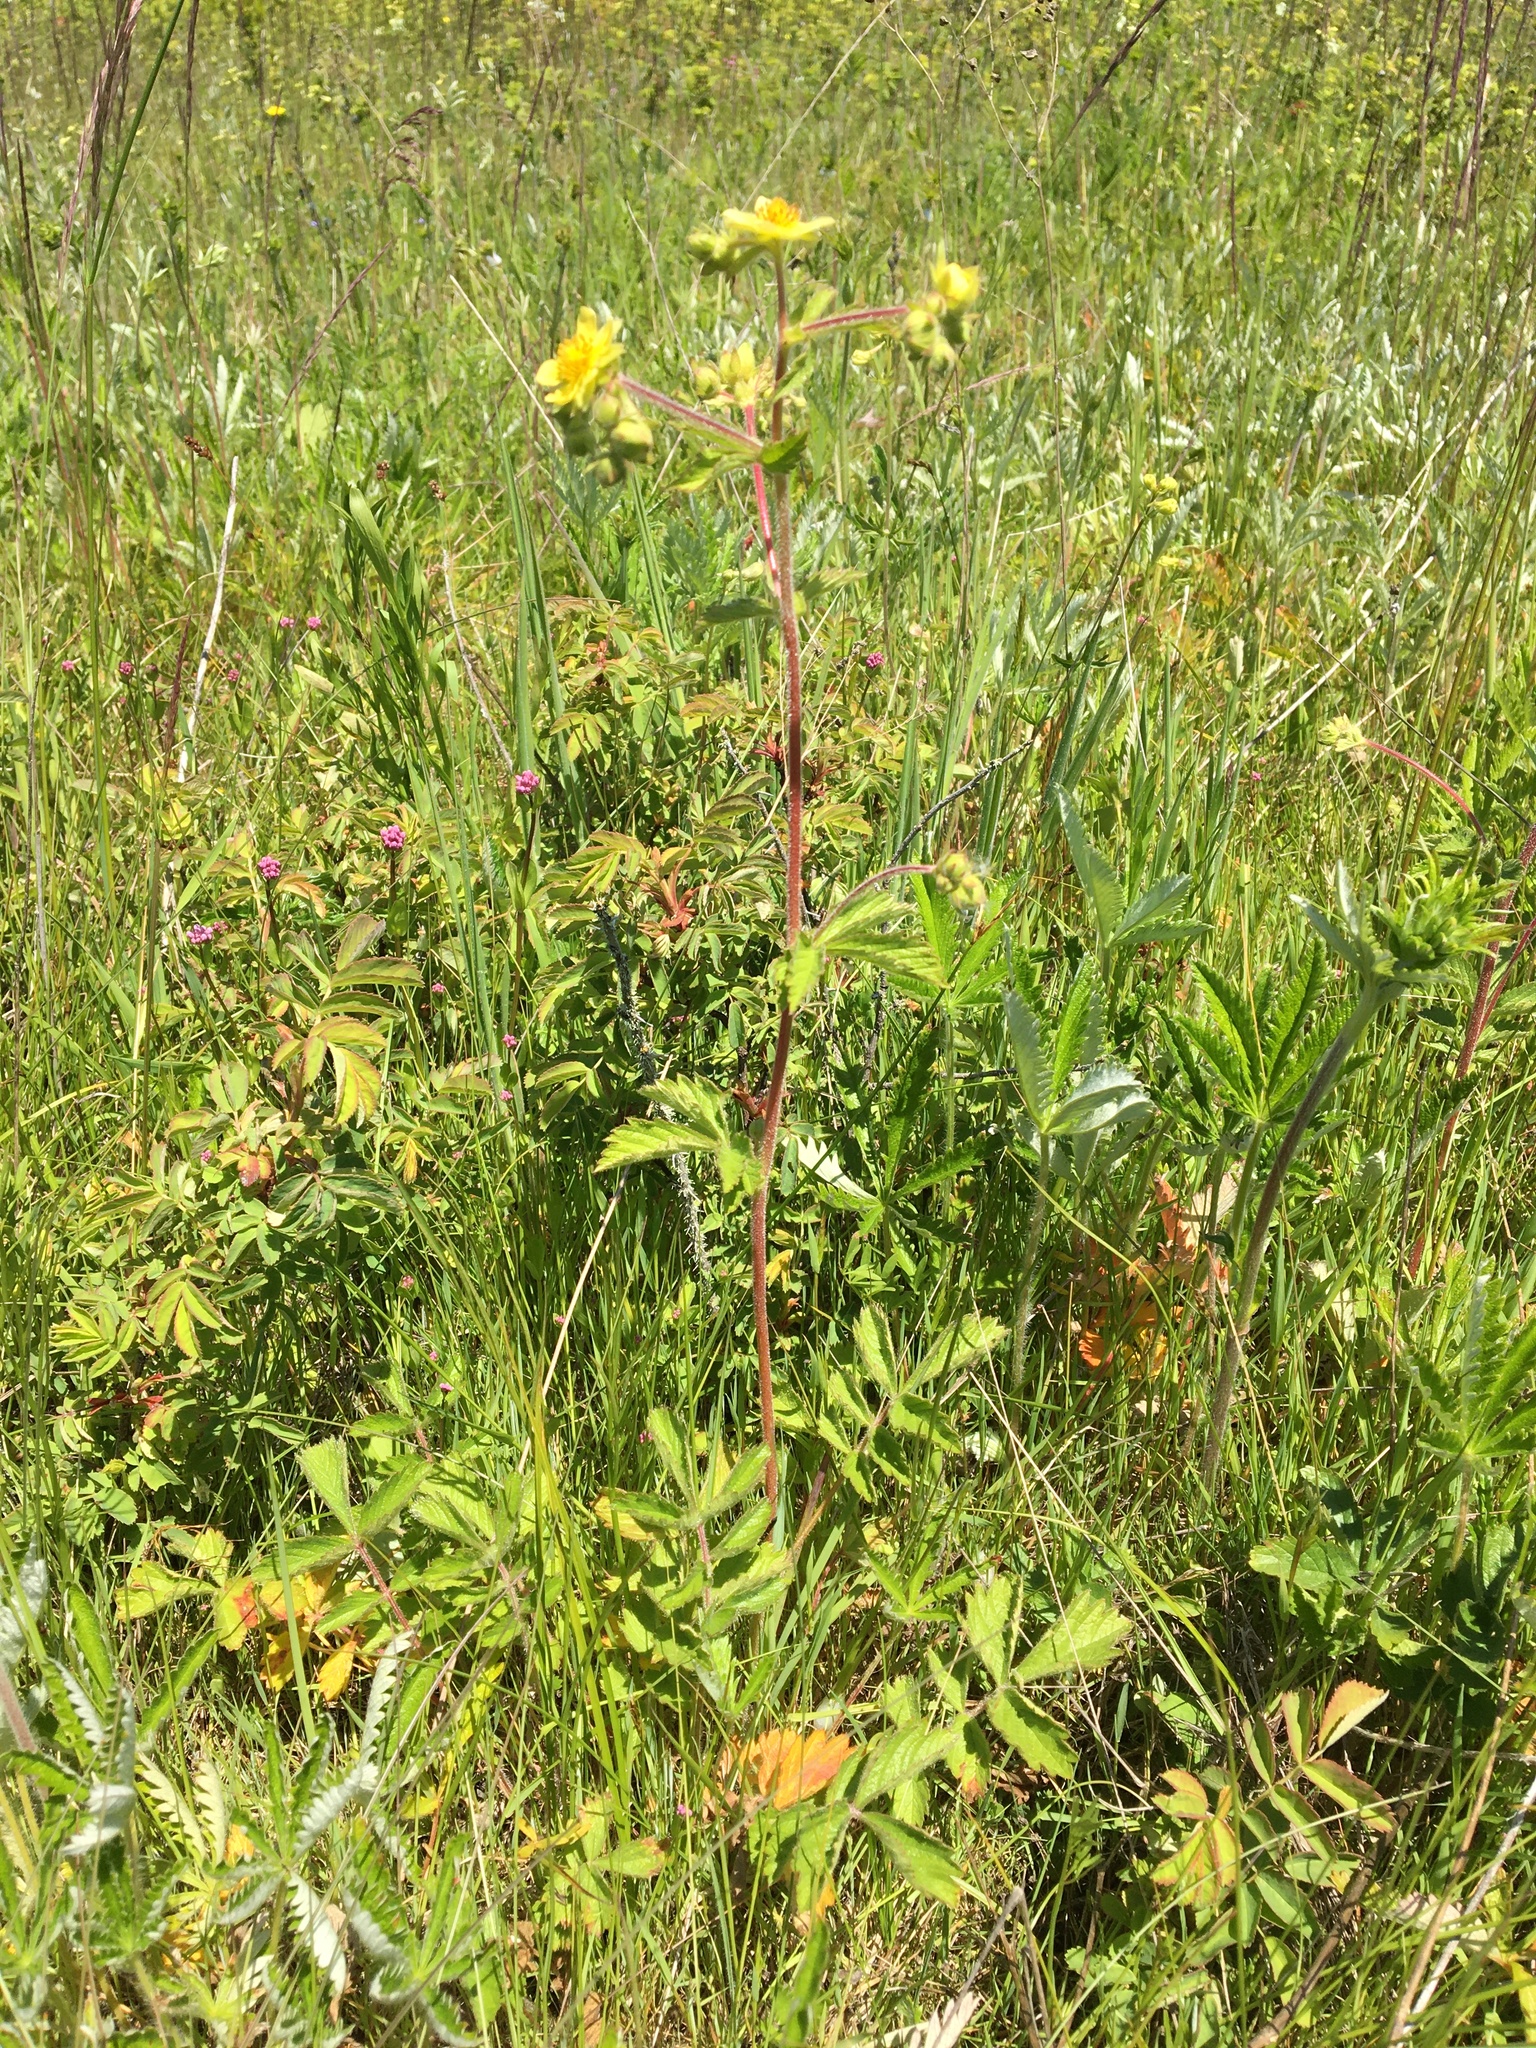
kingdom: Plantae
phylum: Tracheophyta
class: Magnoliopsida
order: Rosales
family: Rosaceae
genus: Drymocallis
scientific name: Drymocallis glandulosa
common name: Sticky cinquefoil
